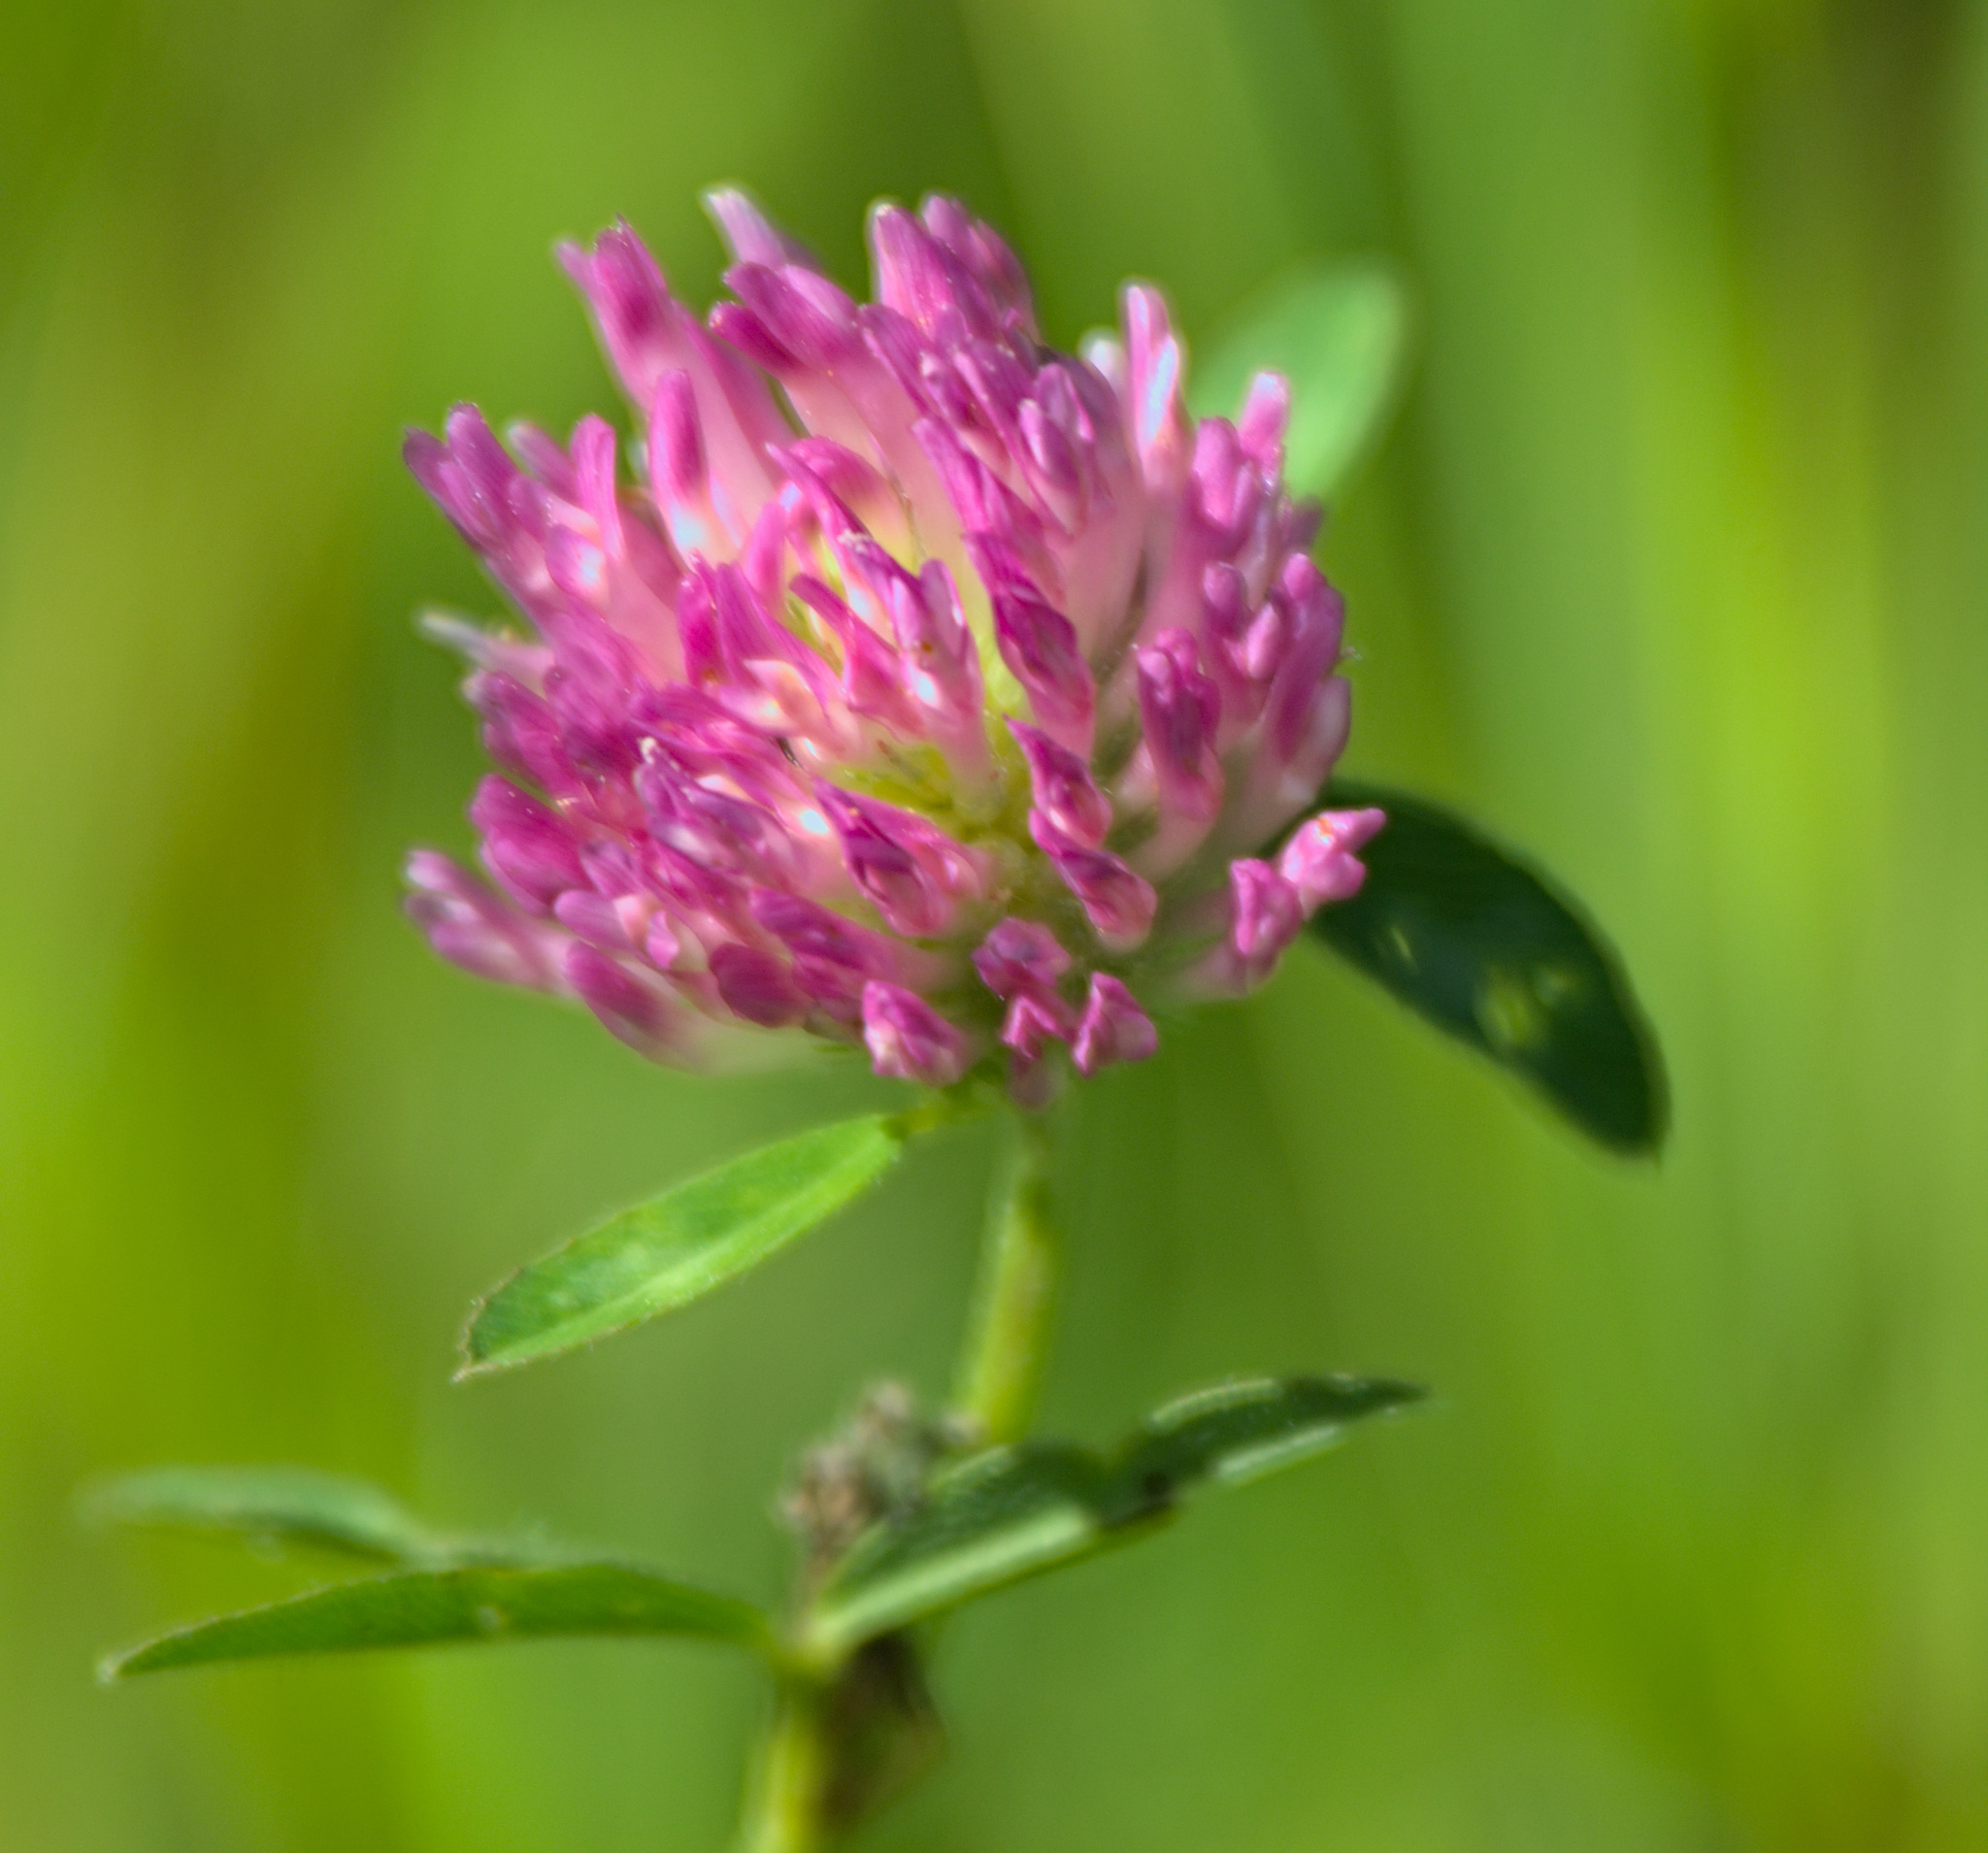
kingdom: Plantae
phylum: Tracheophyta
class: Magnoliopsida
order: Fabales
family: Fabaceae
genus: Trifolium
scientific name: Trifolium pratense
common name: Red clover
